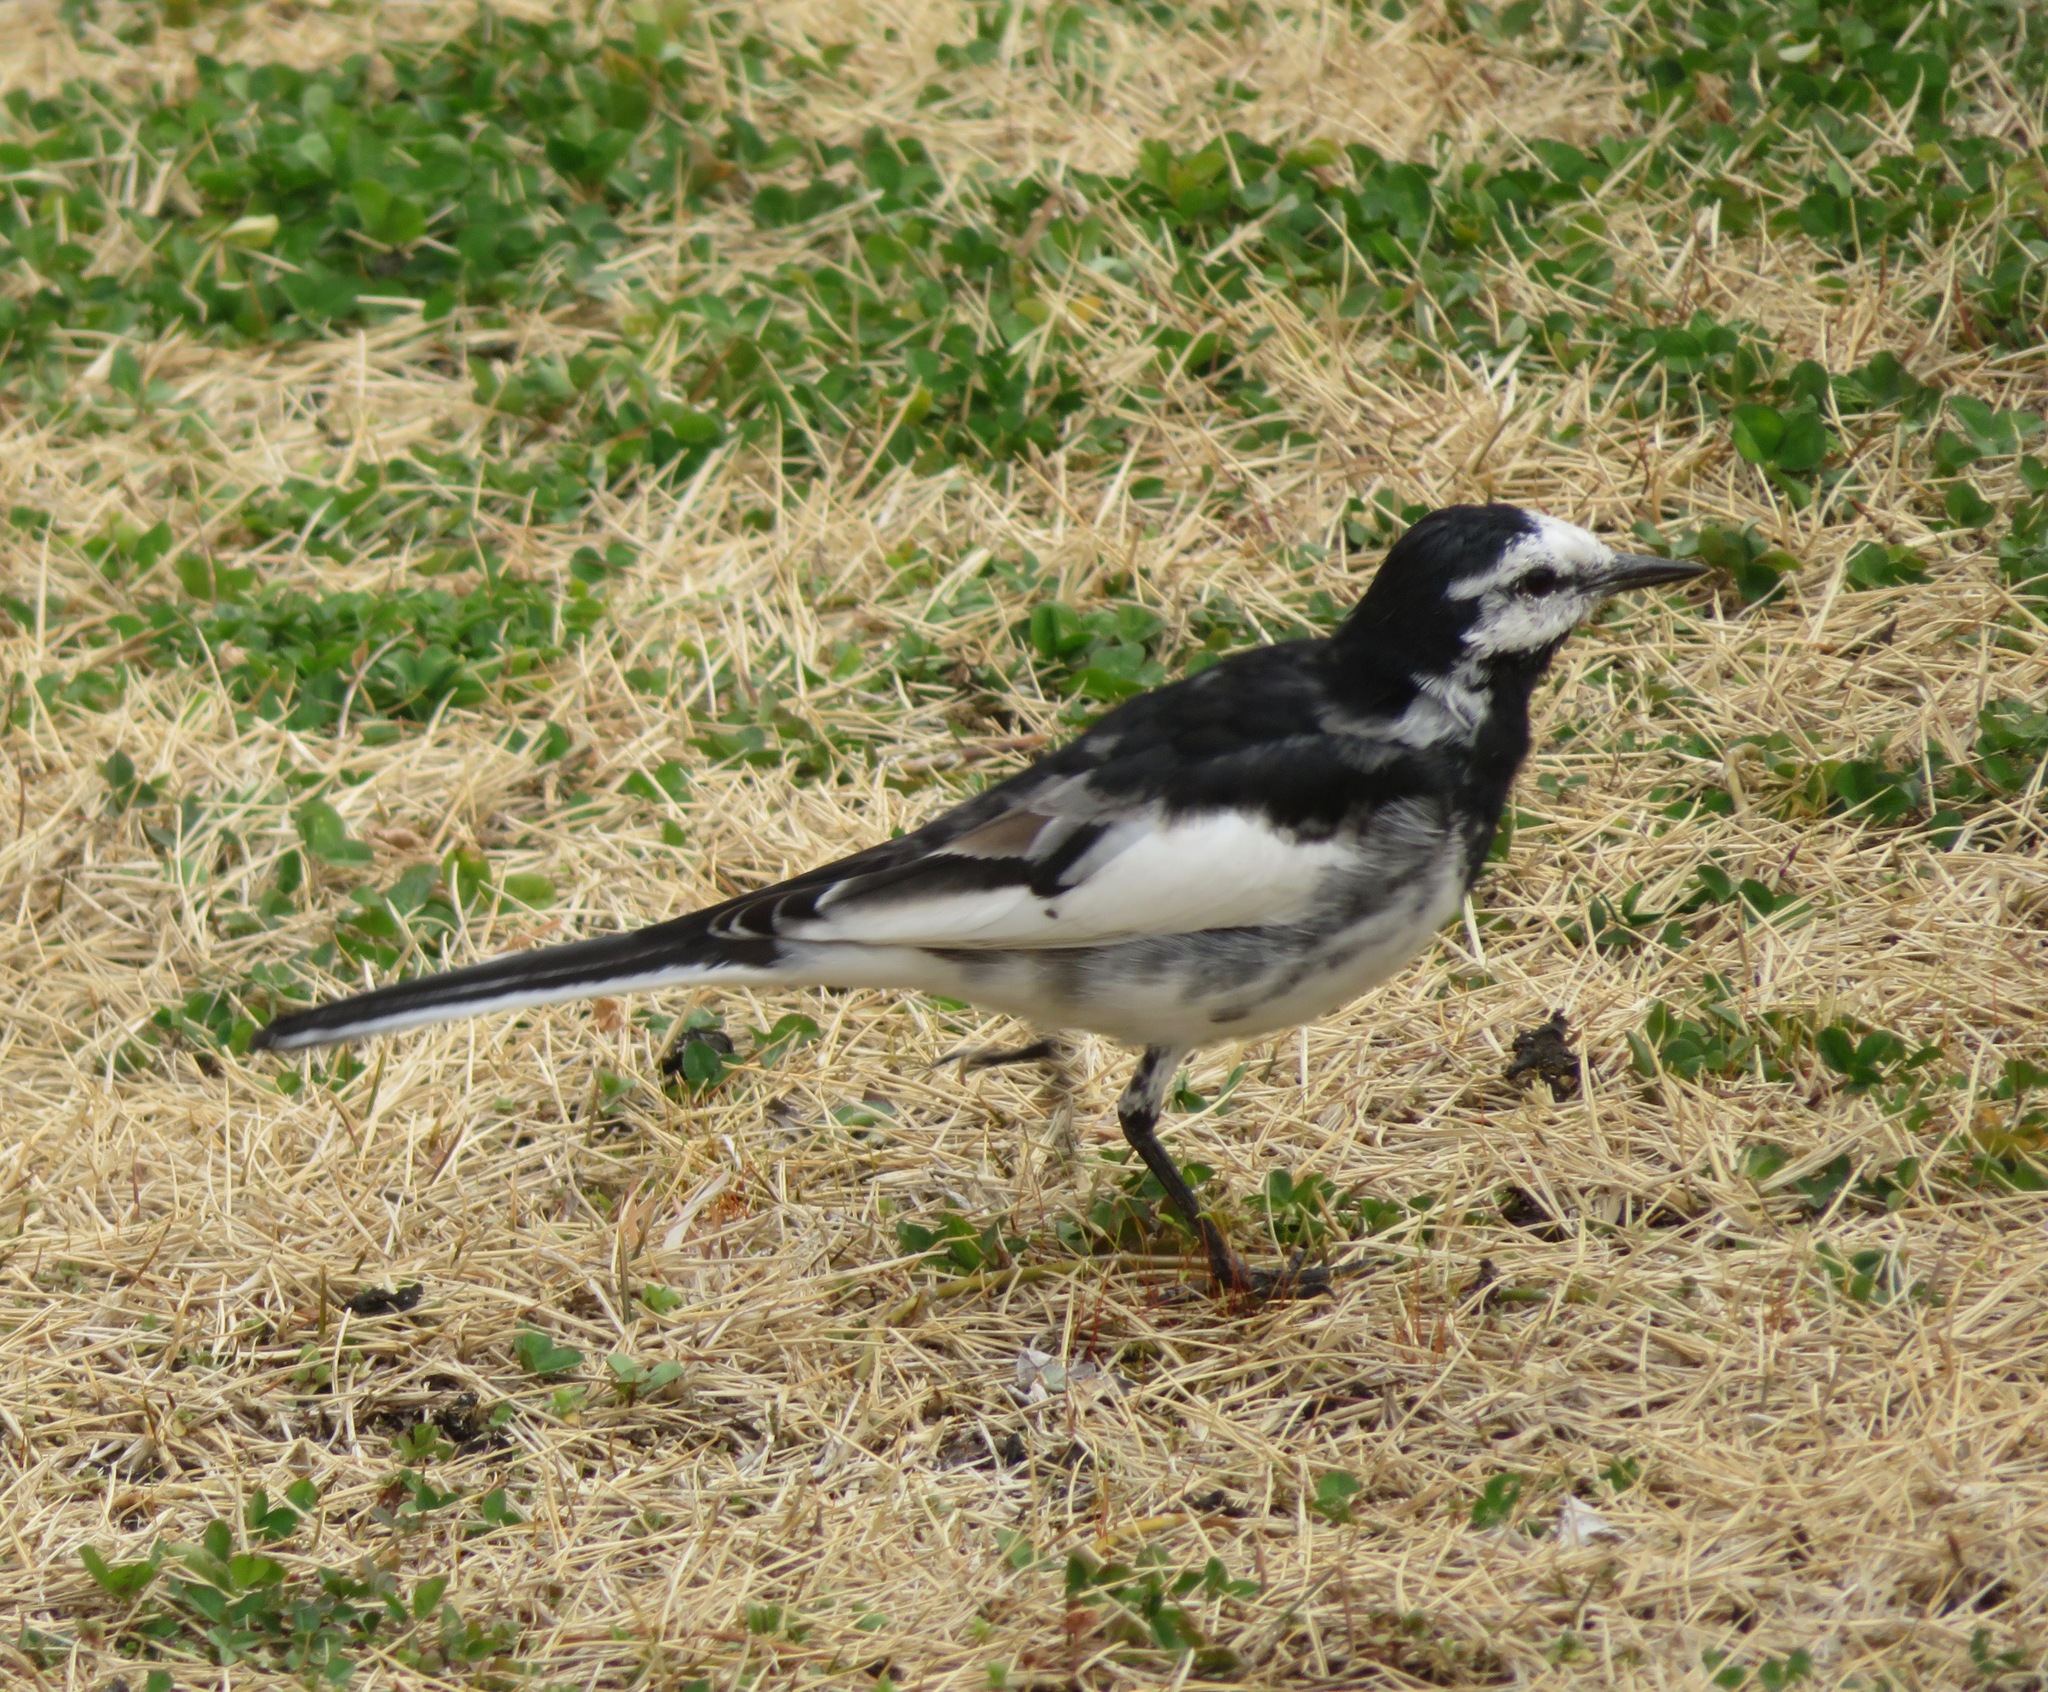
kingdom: Animalia
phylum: Chordata
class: Aves
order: Passeriformes
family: Motacillidae
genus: Motacilla
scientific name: Motacilla alba
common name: White wagtail
